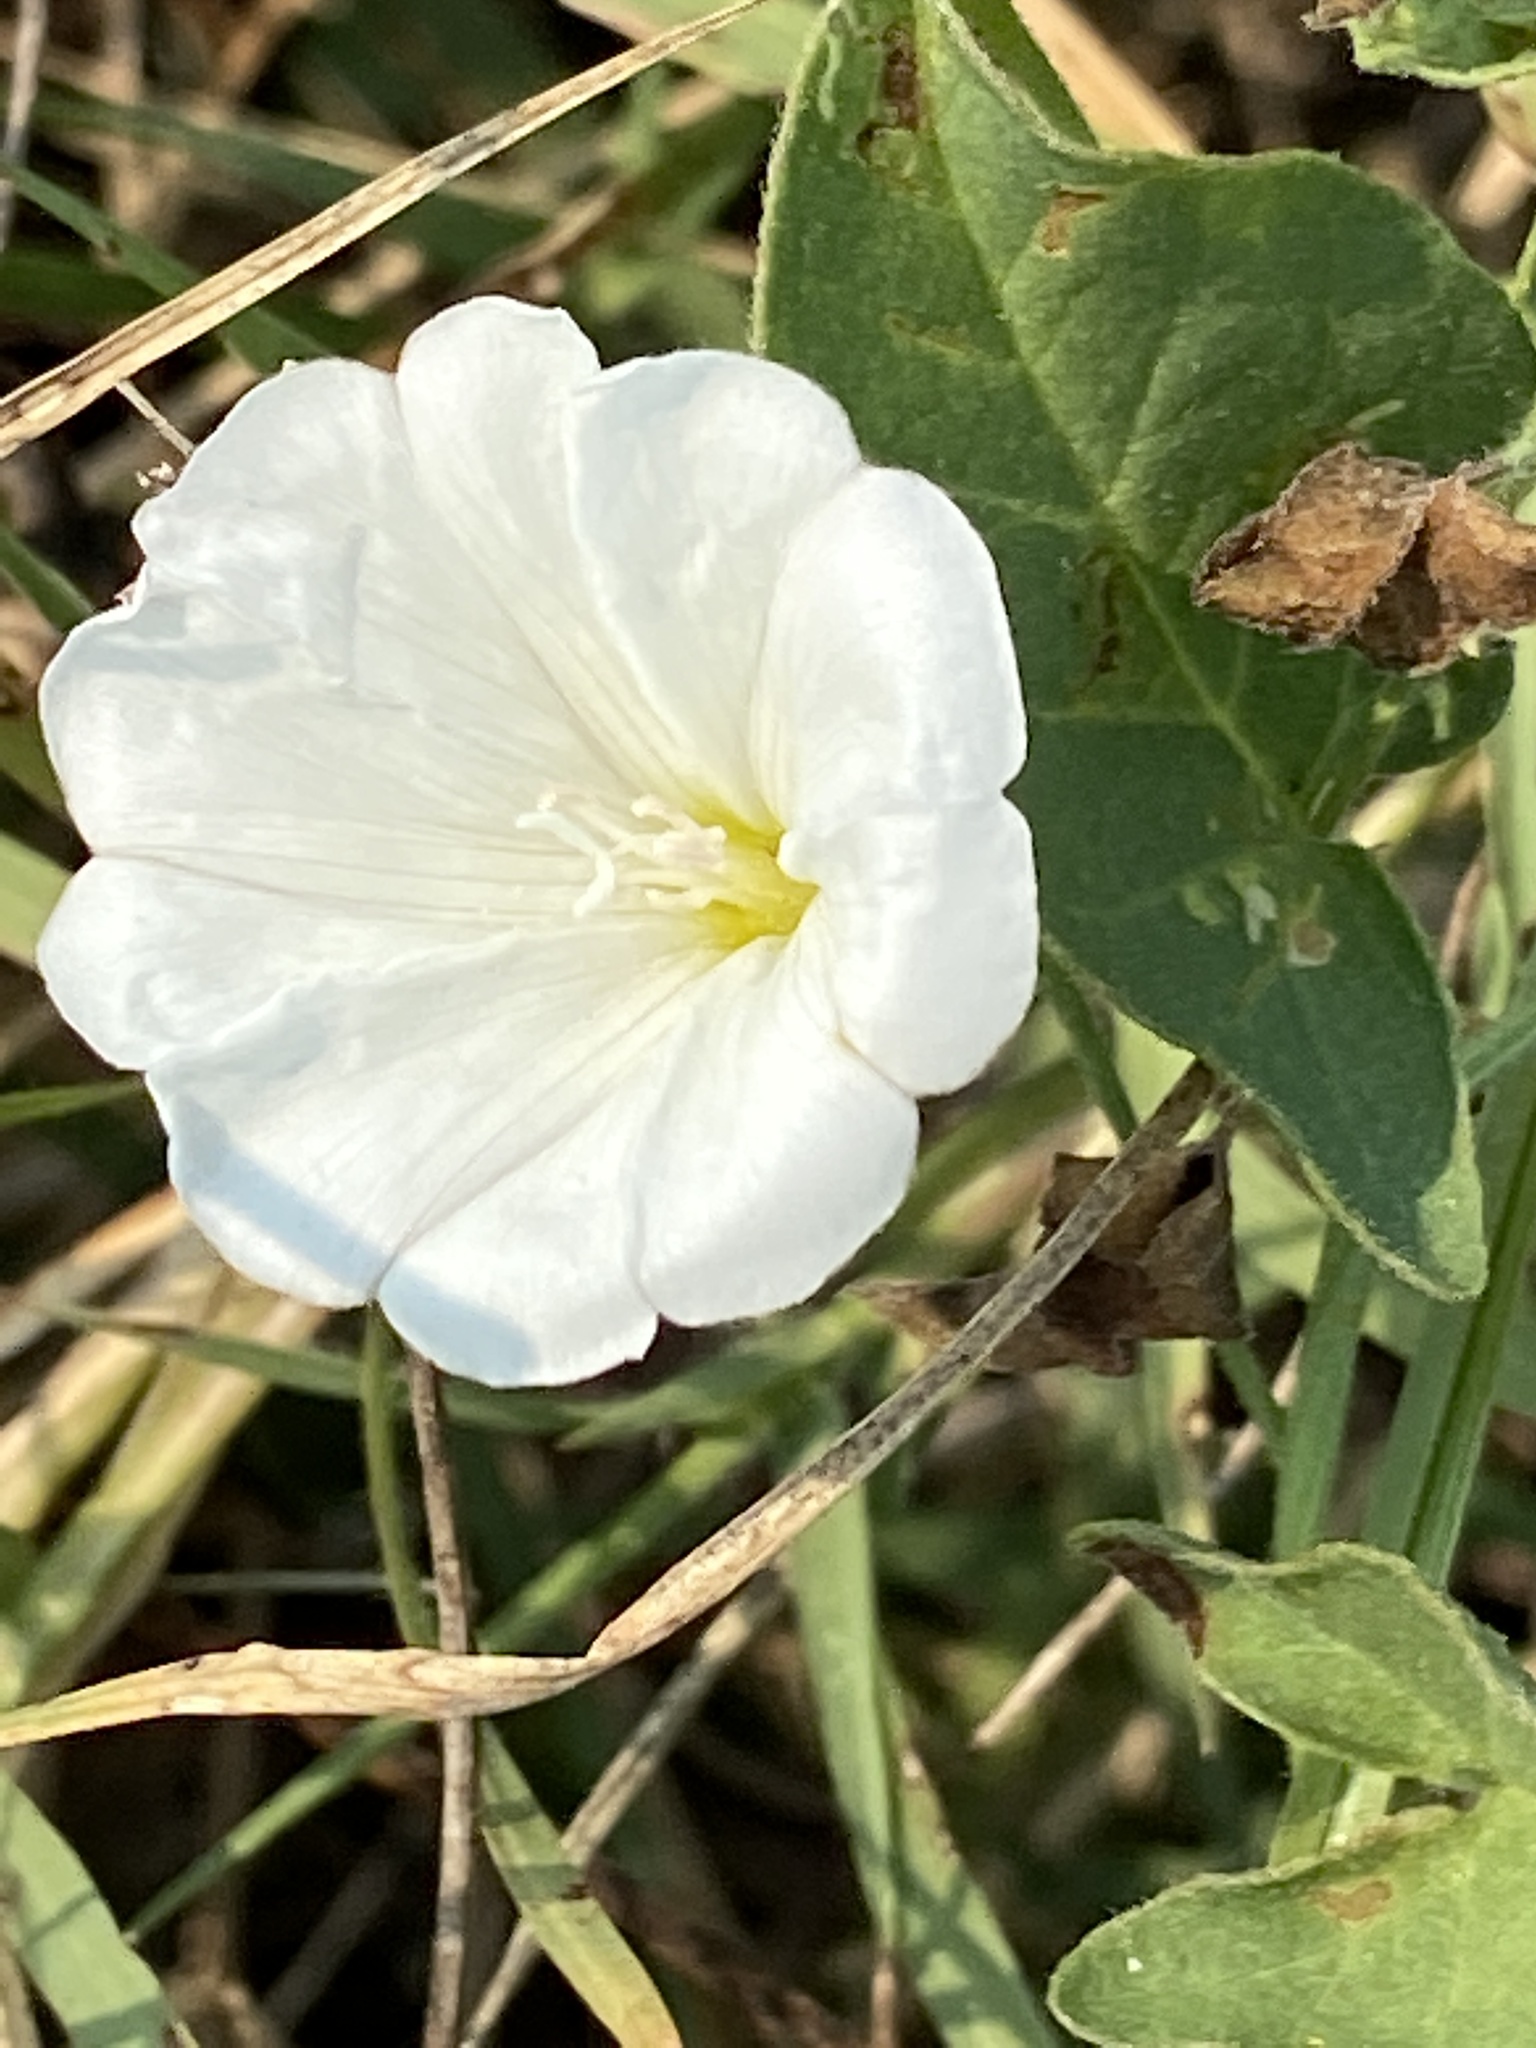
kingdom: Plantae
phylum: Tracheophyta
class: Magnoliopsida
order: Solanales
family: Convolvulaceae
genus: Convolvulus
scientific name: Convolvulus arvensis
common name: Field bindweed
